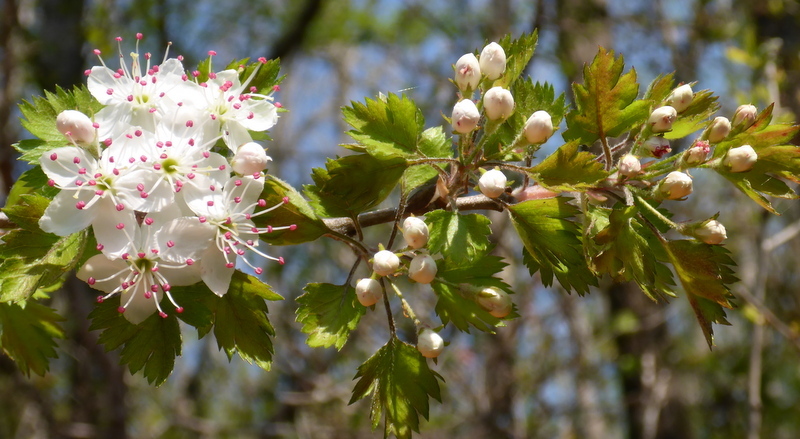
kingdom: Plantae
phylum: Tracheophyta
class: Magnoliopsida
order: Rosales
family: Rosaceae
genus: Crataegus
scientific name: Crataegus marshallii
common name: Parsley-hawthorn
